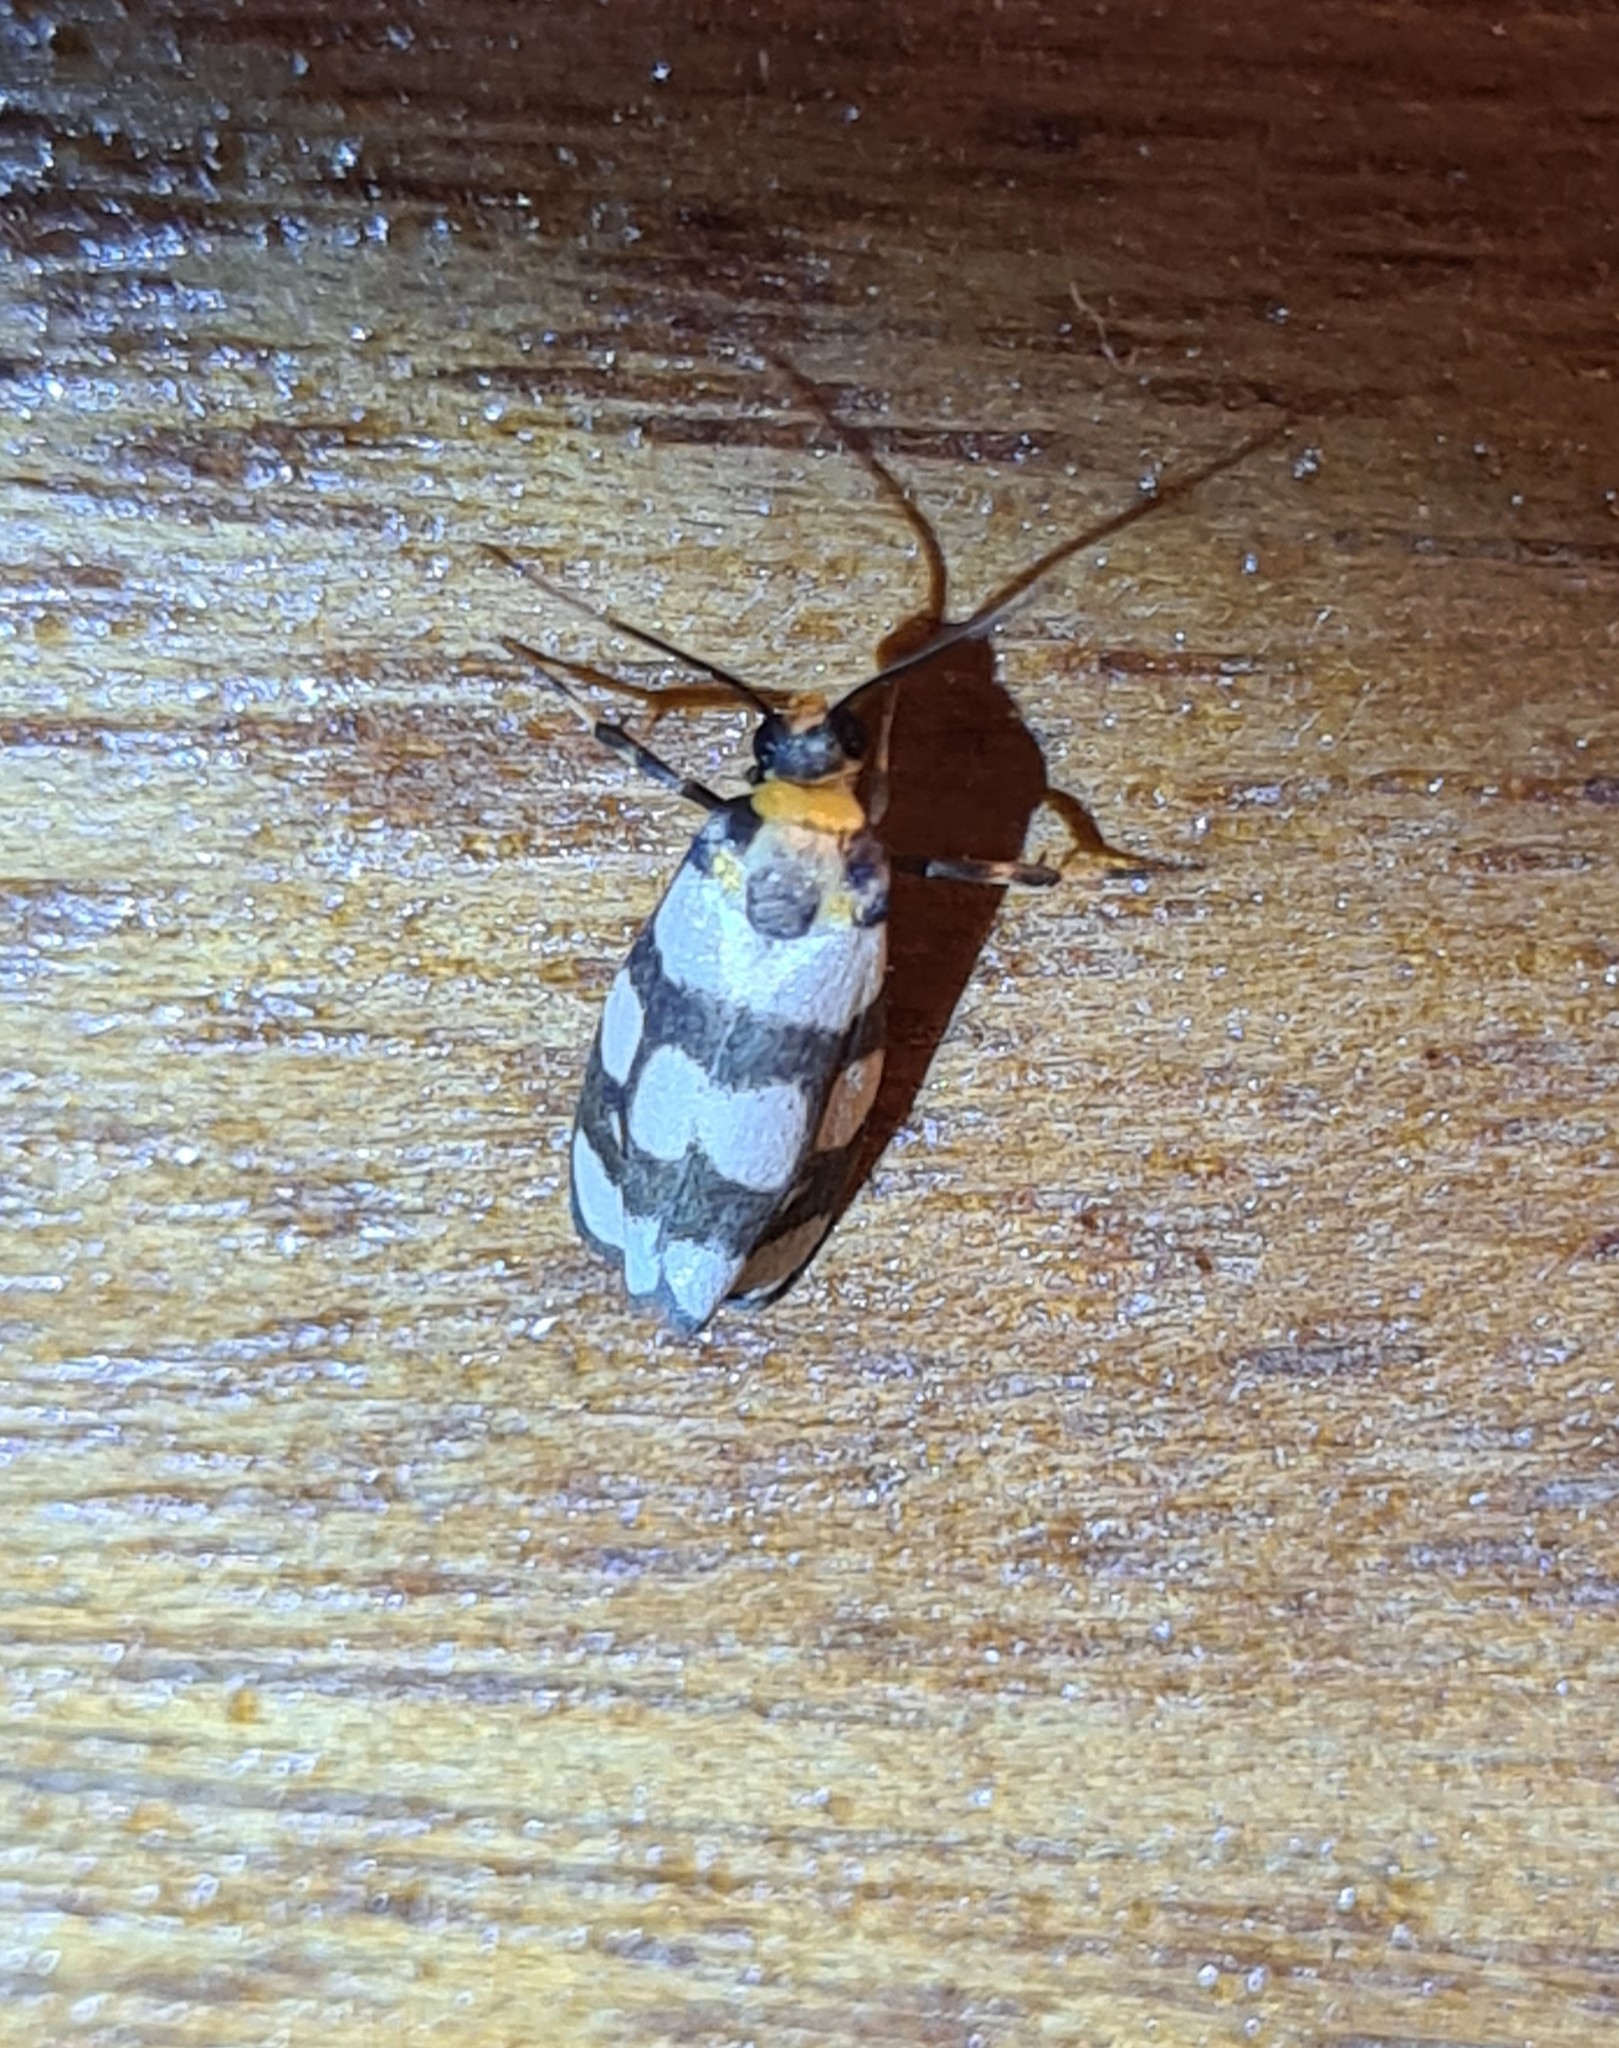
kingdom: Animalia
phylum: Arthropoda
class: Insecta
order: Lepidoptera
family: Erebidae
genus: Cisthene
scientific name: Cisthene tessellata
